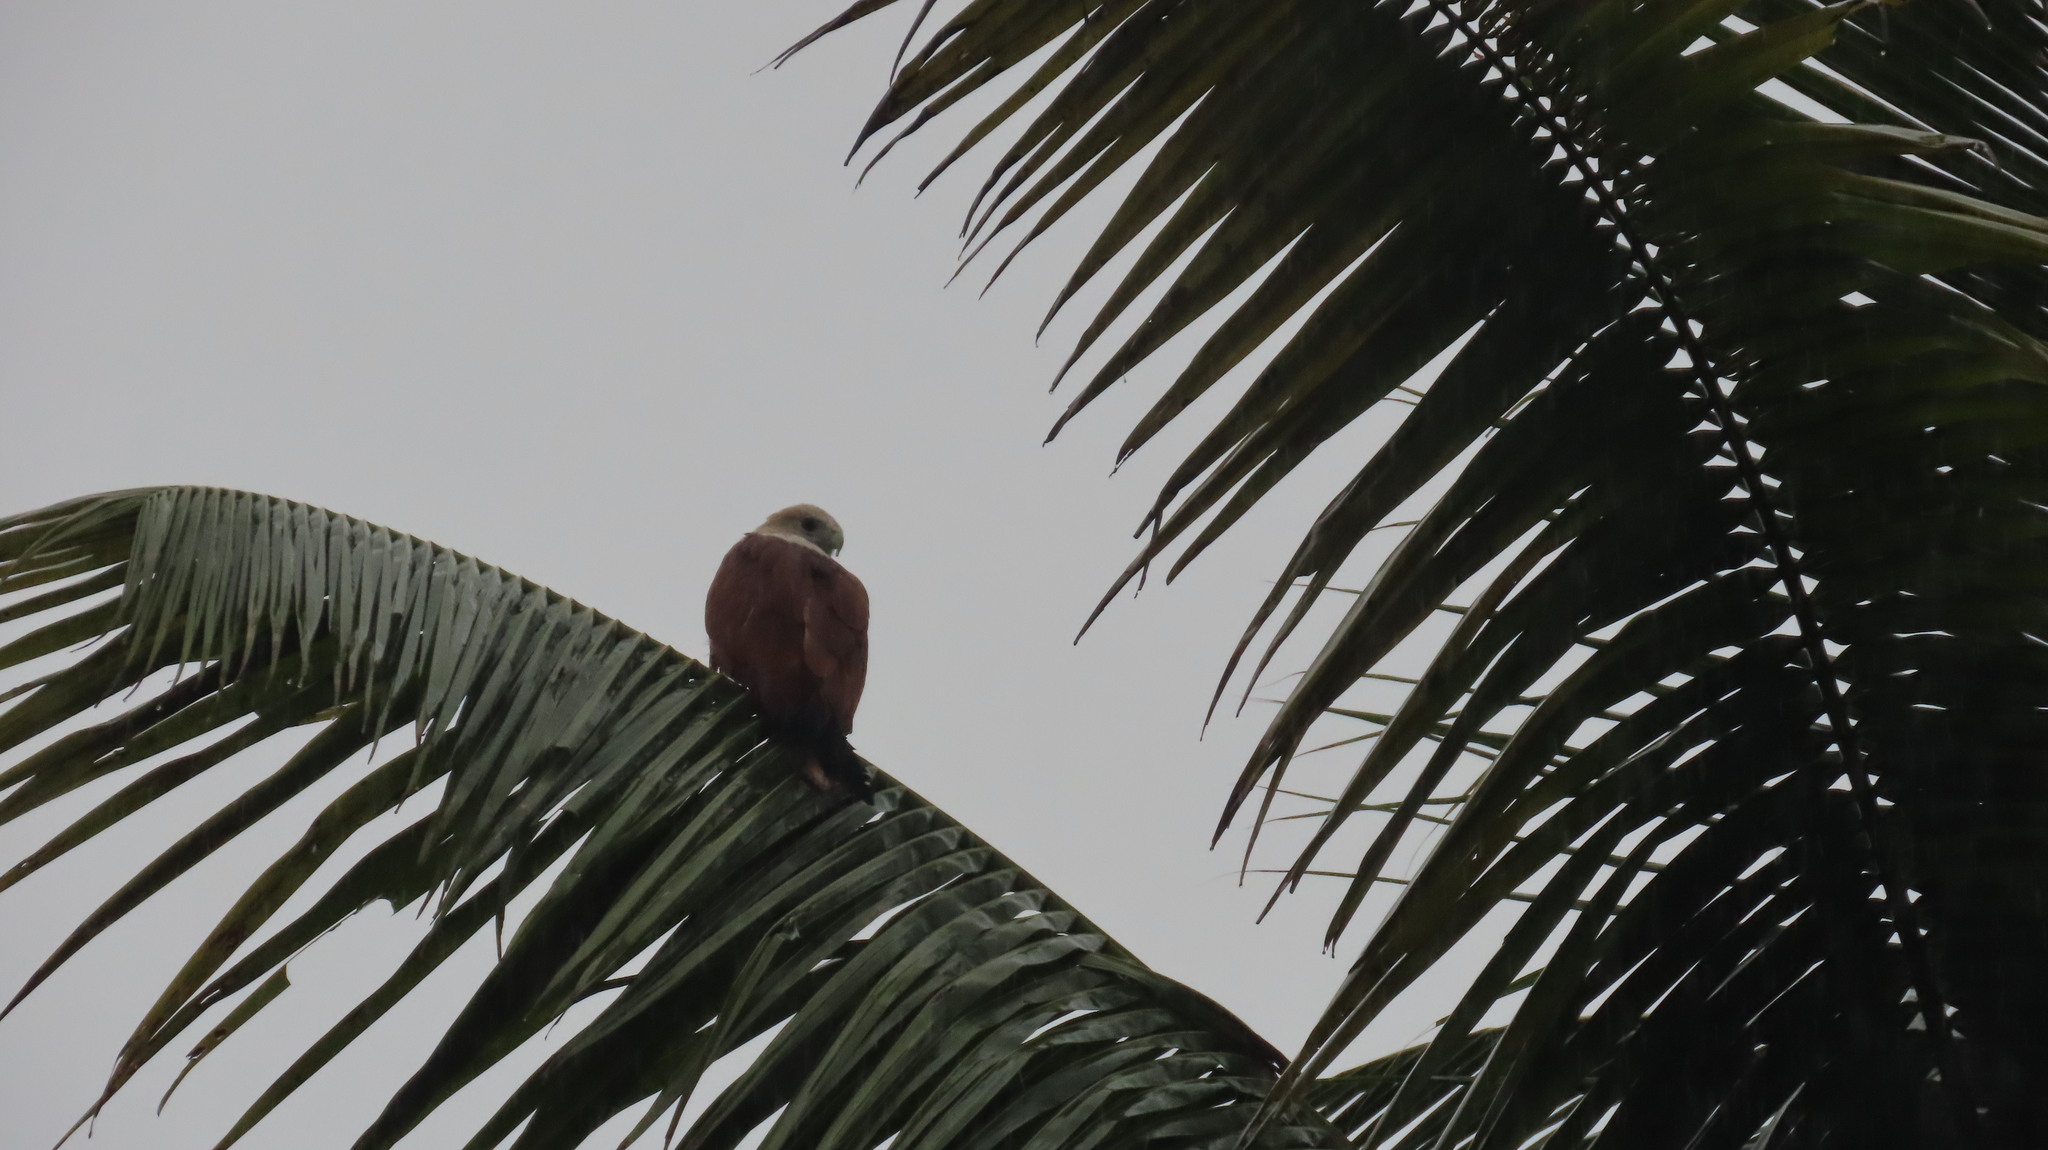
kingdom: Animalia
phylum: Chordata
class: Aves
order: Accipitriformes
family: Accipitridae
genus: Haliastur
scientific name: Haliastur indus
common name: Brahminy kite
